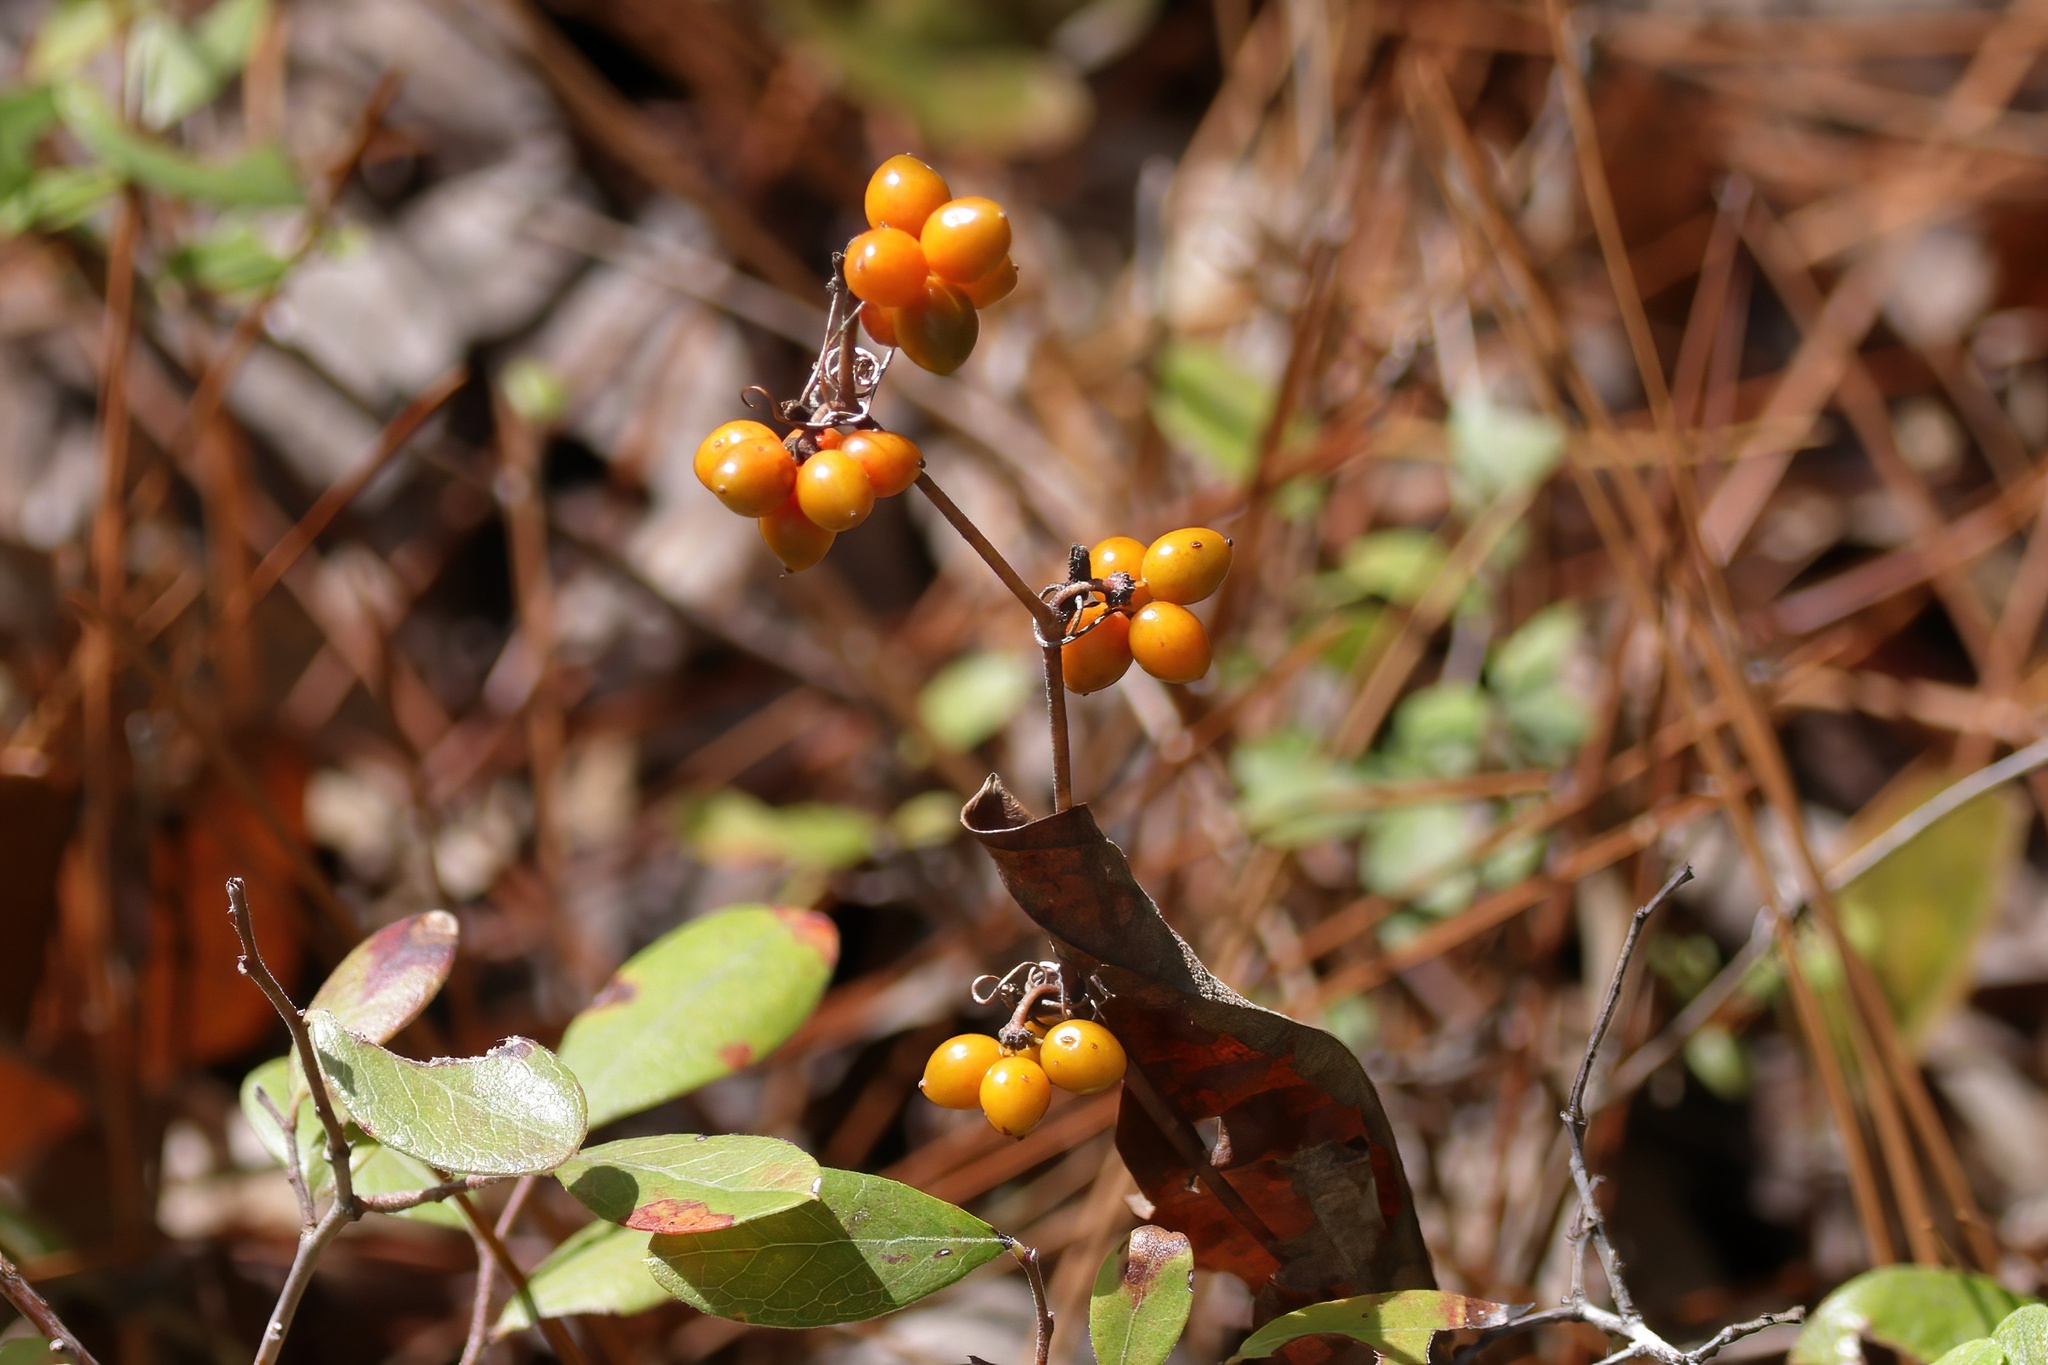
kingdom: Plantae
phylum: Tracheophyta
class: Liliopsida
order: Liliales
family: Smilacaceae
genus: Smilax
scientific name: Smilax pumila
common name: Sarsaparilla-vine
